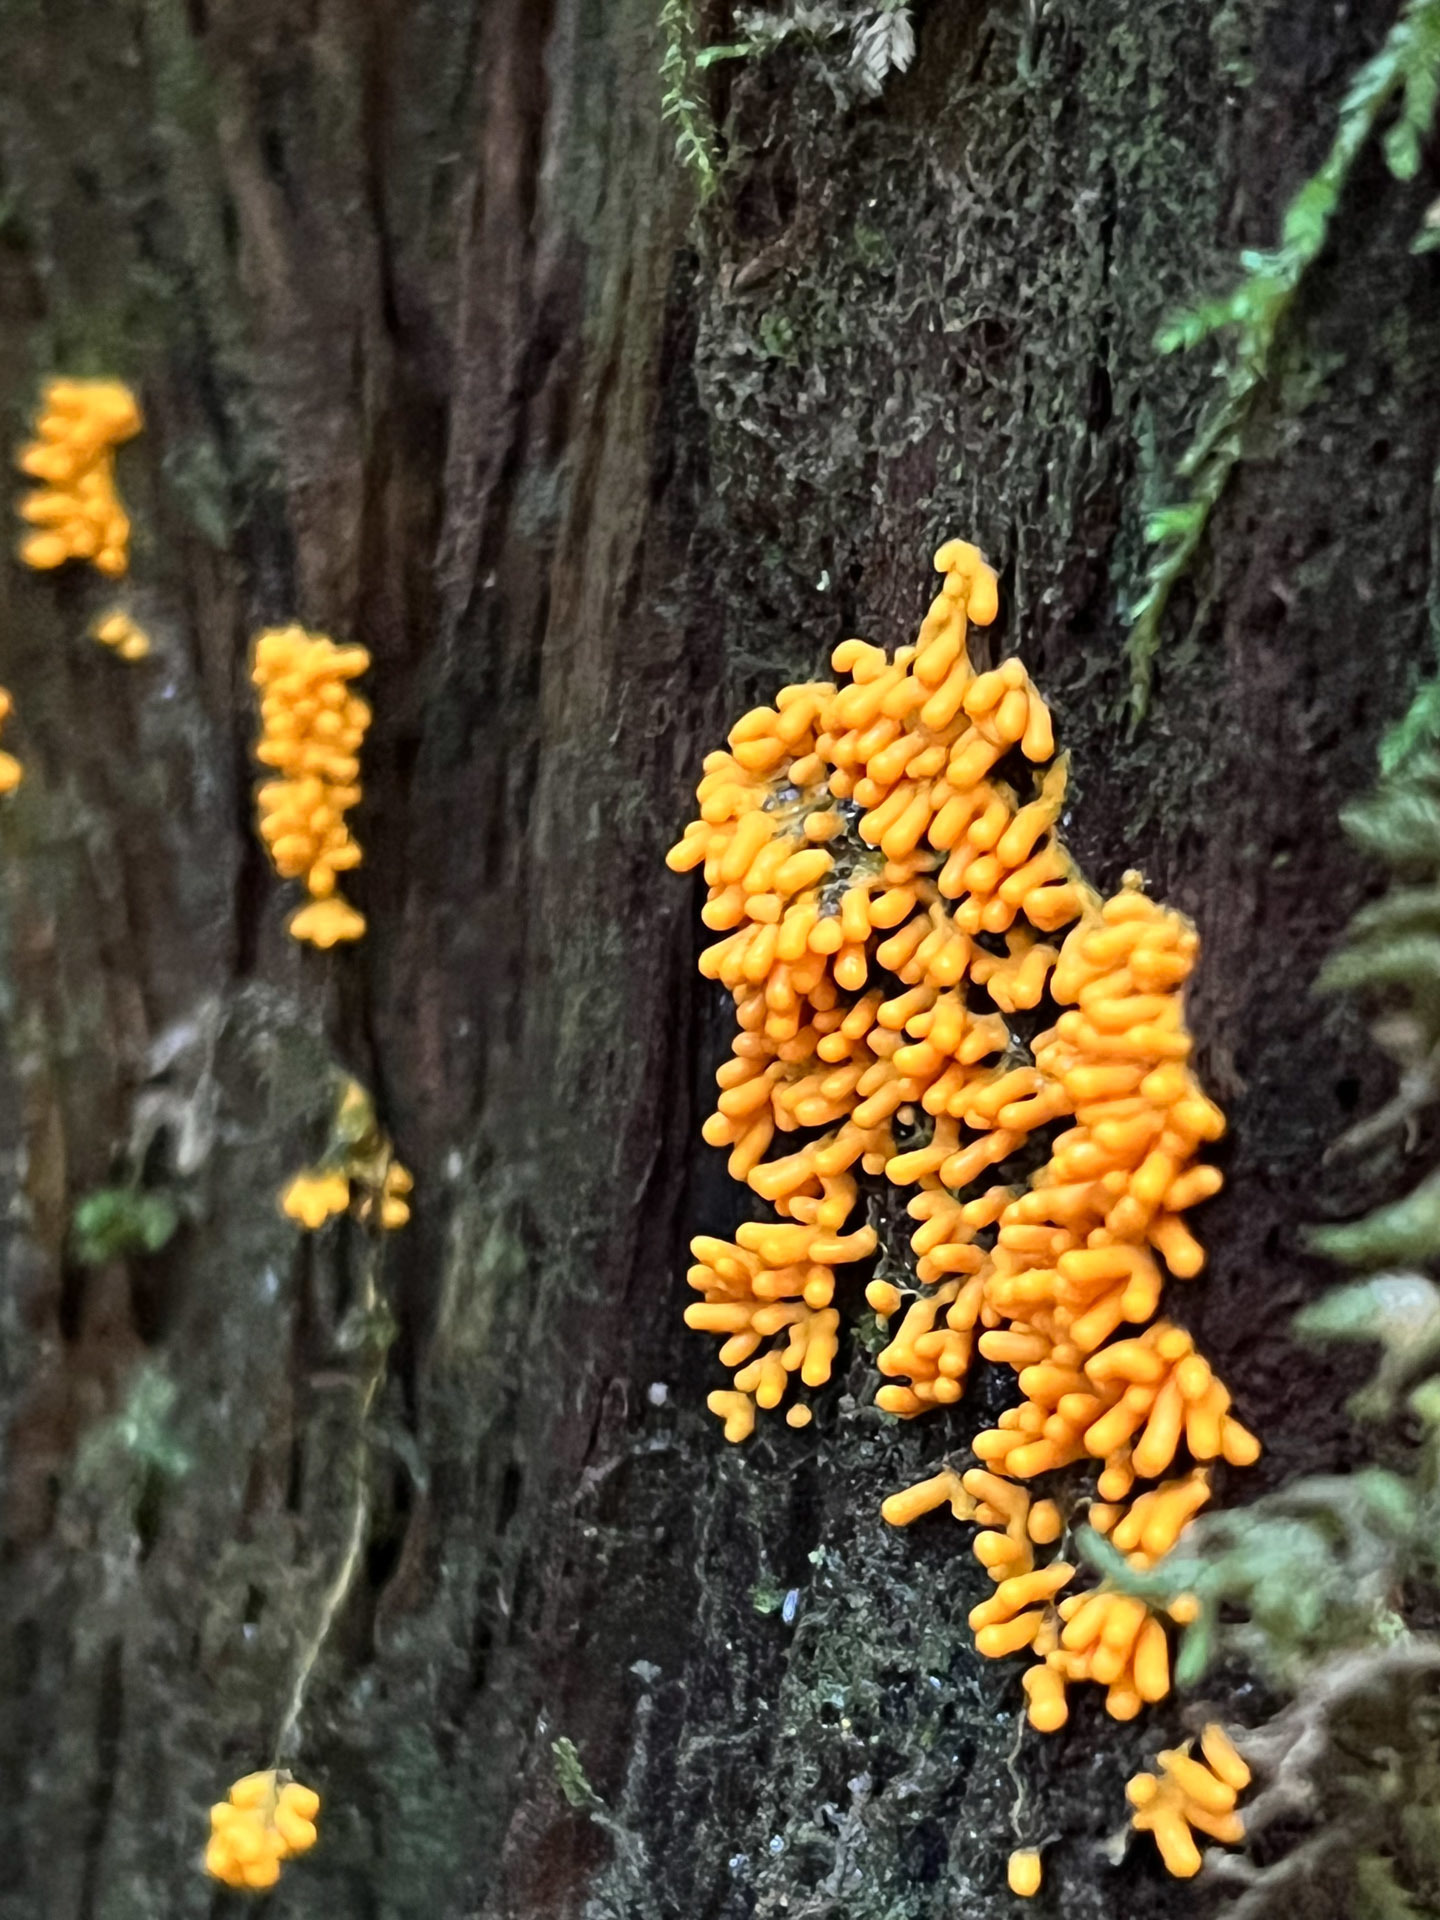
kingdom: Protozoa
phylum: Mycetozoa
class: Myxomycetes
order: Physarales
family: Physaraceae
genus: Leocarpus
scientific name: Leocarpus fragilis
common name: Insect-egg slime
